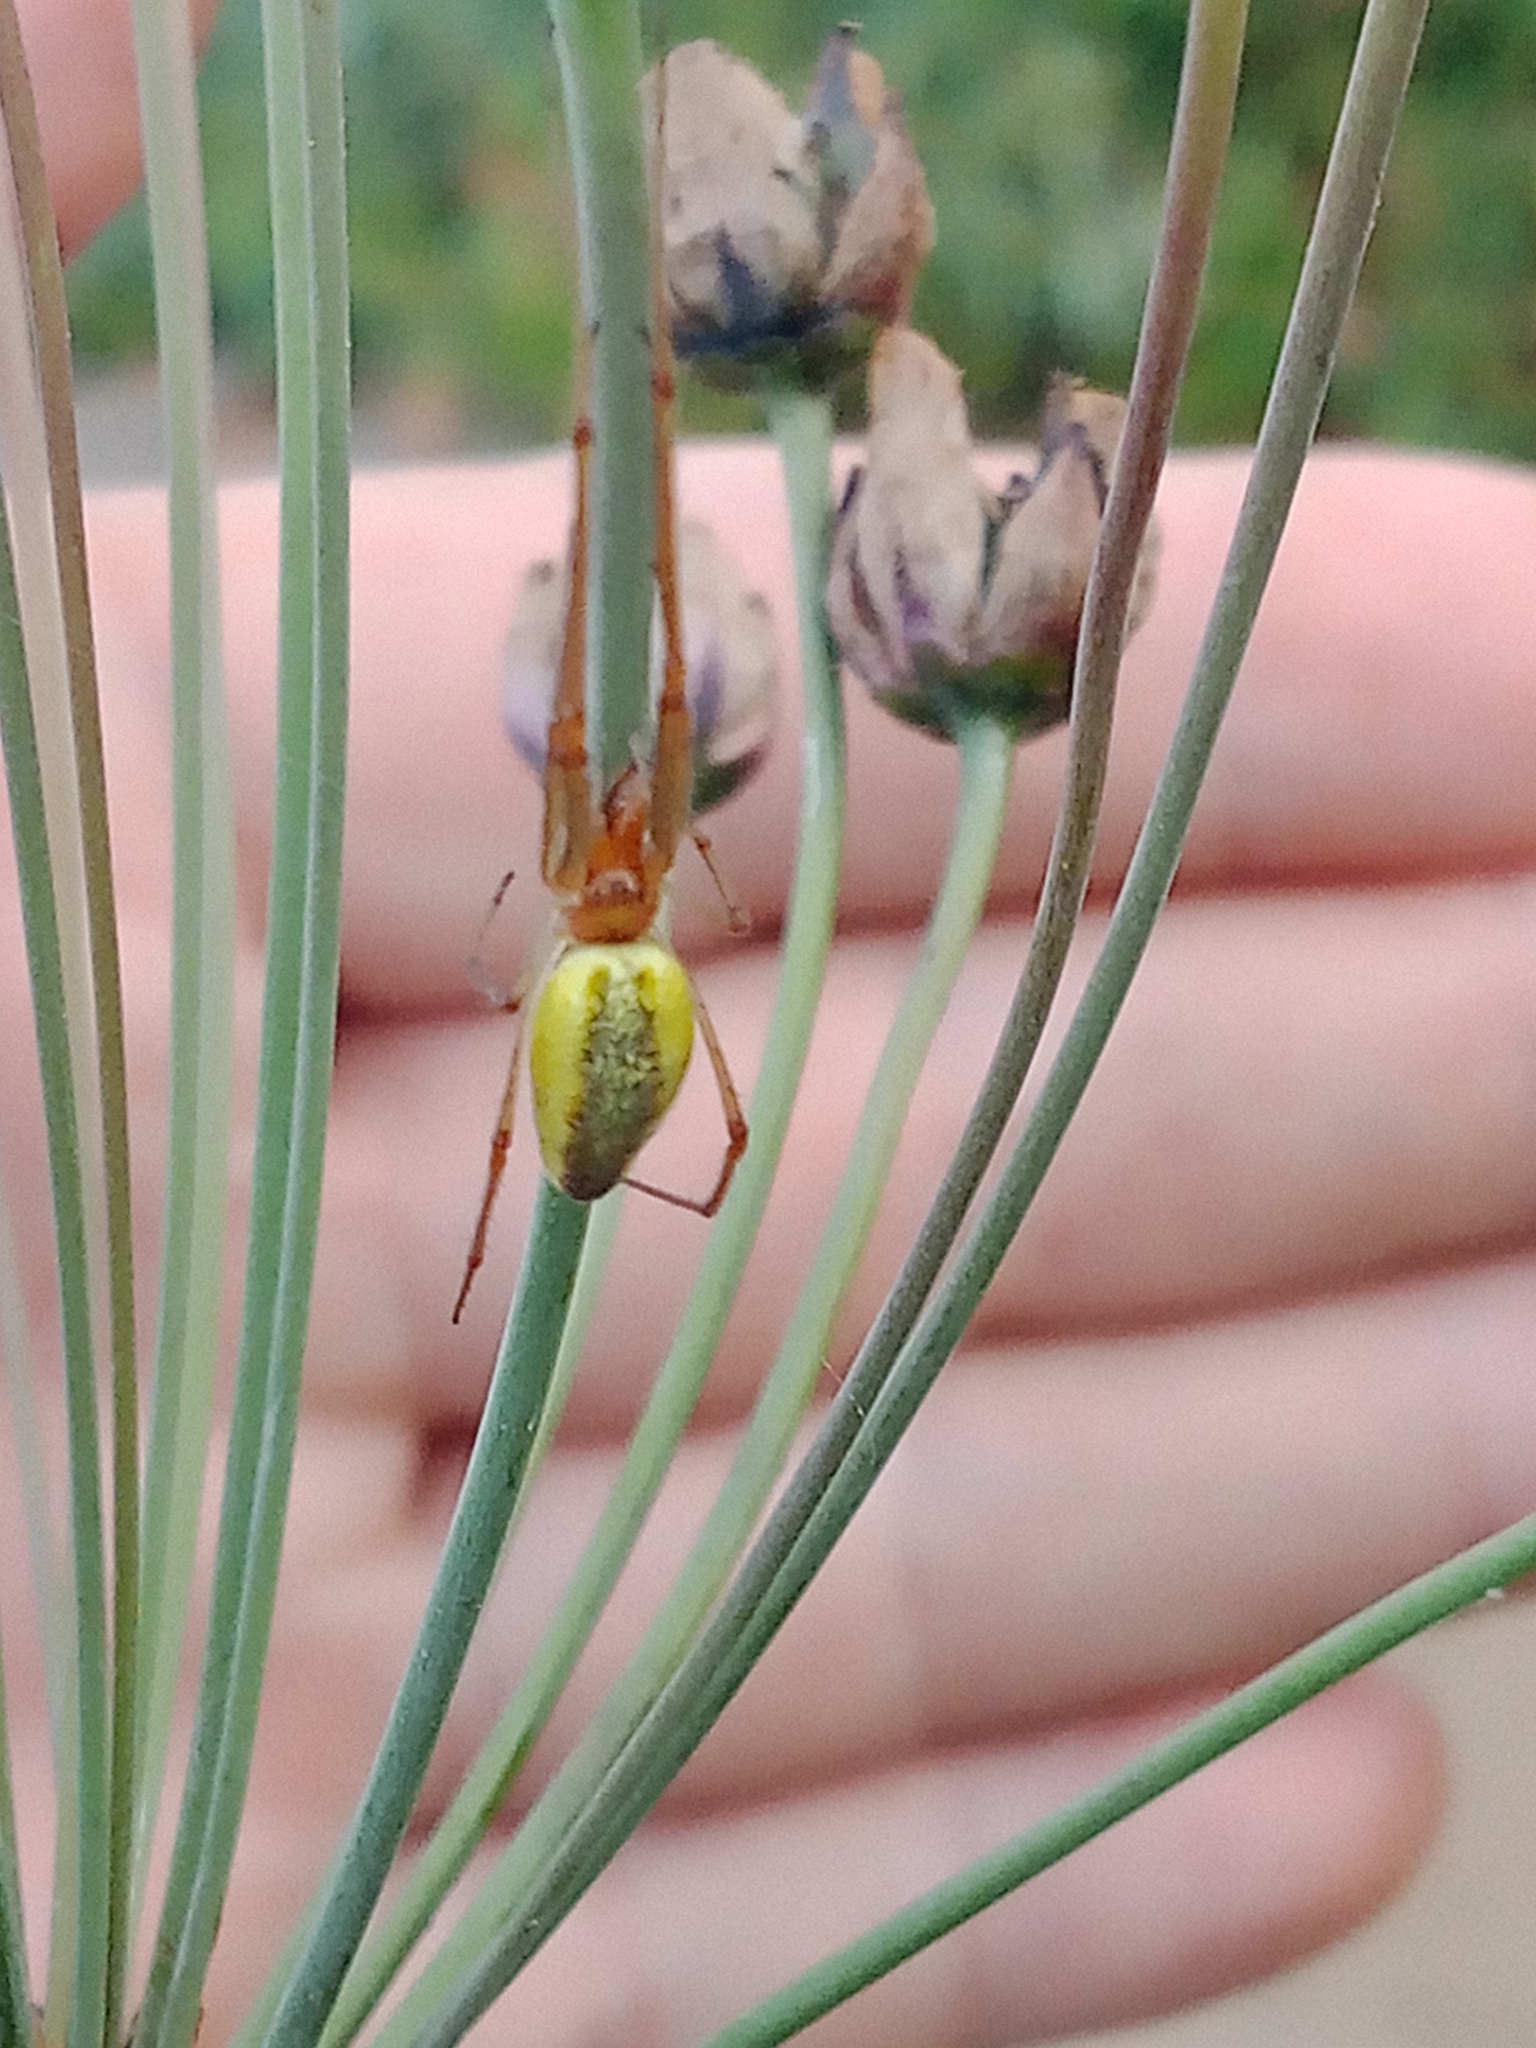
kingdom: Animalia
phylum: Arthropoda
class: Arachnida
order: Araneae
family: Tetragnathidae
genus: Tetragnatha
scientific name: Tetragnatha
